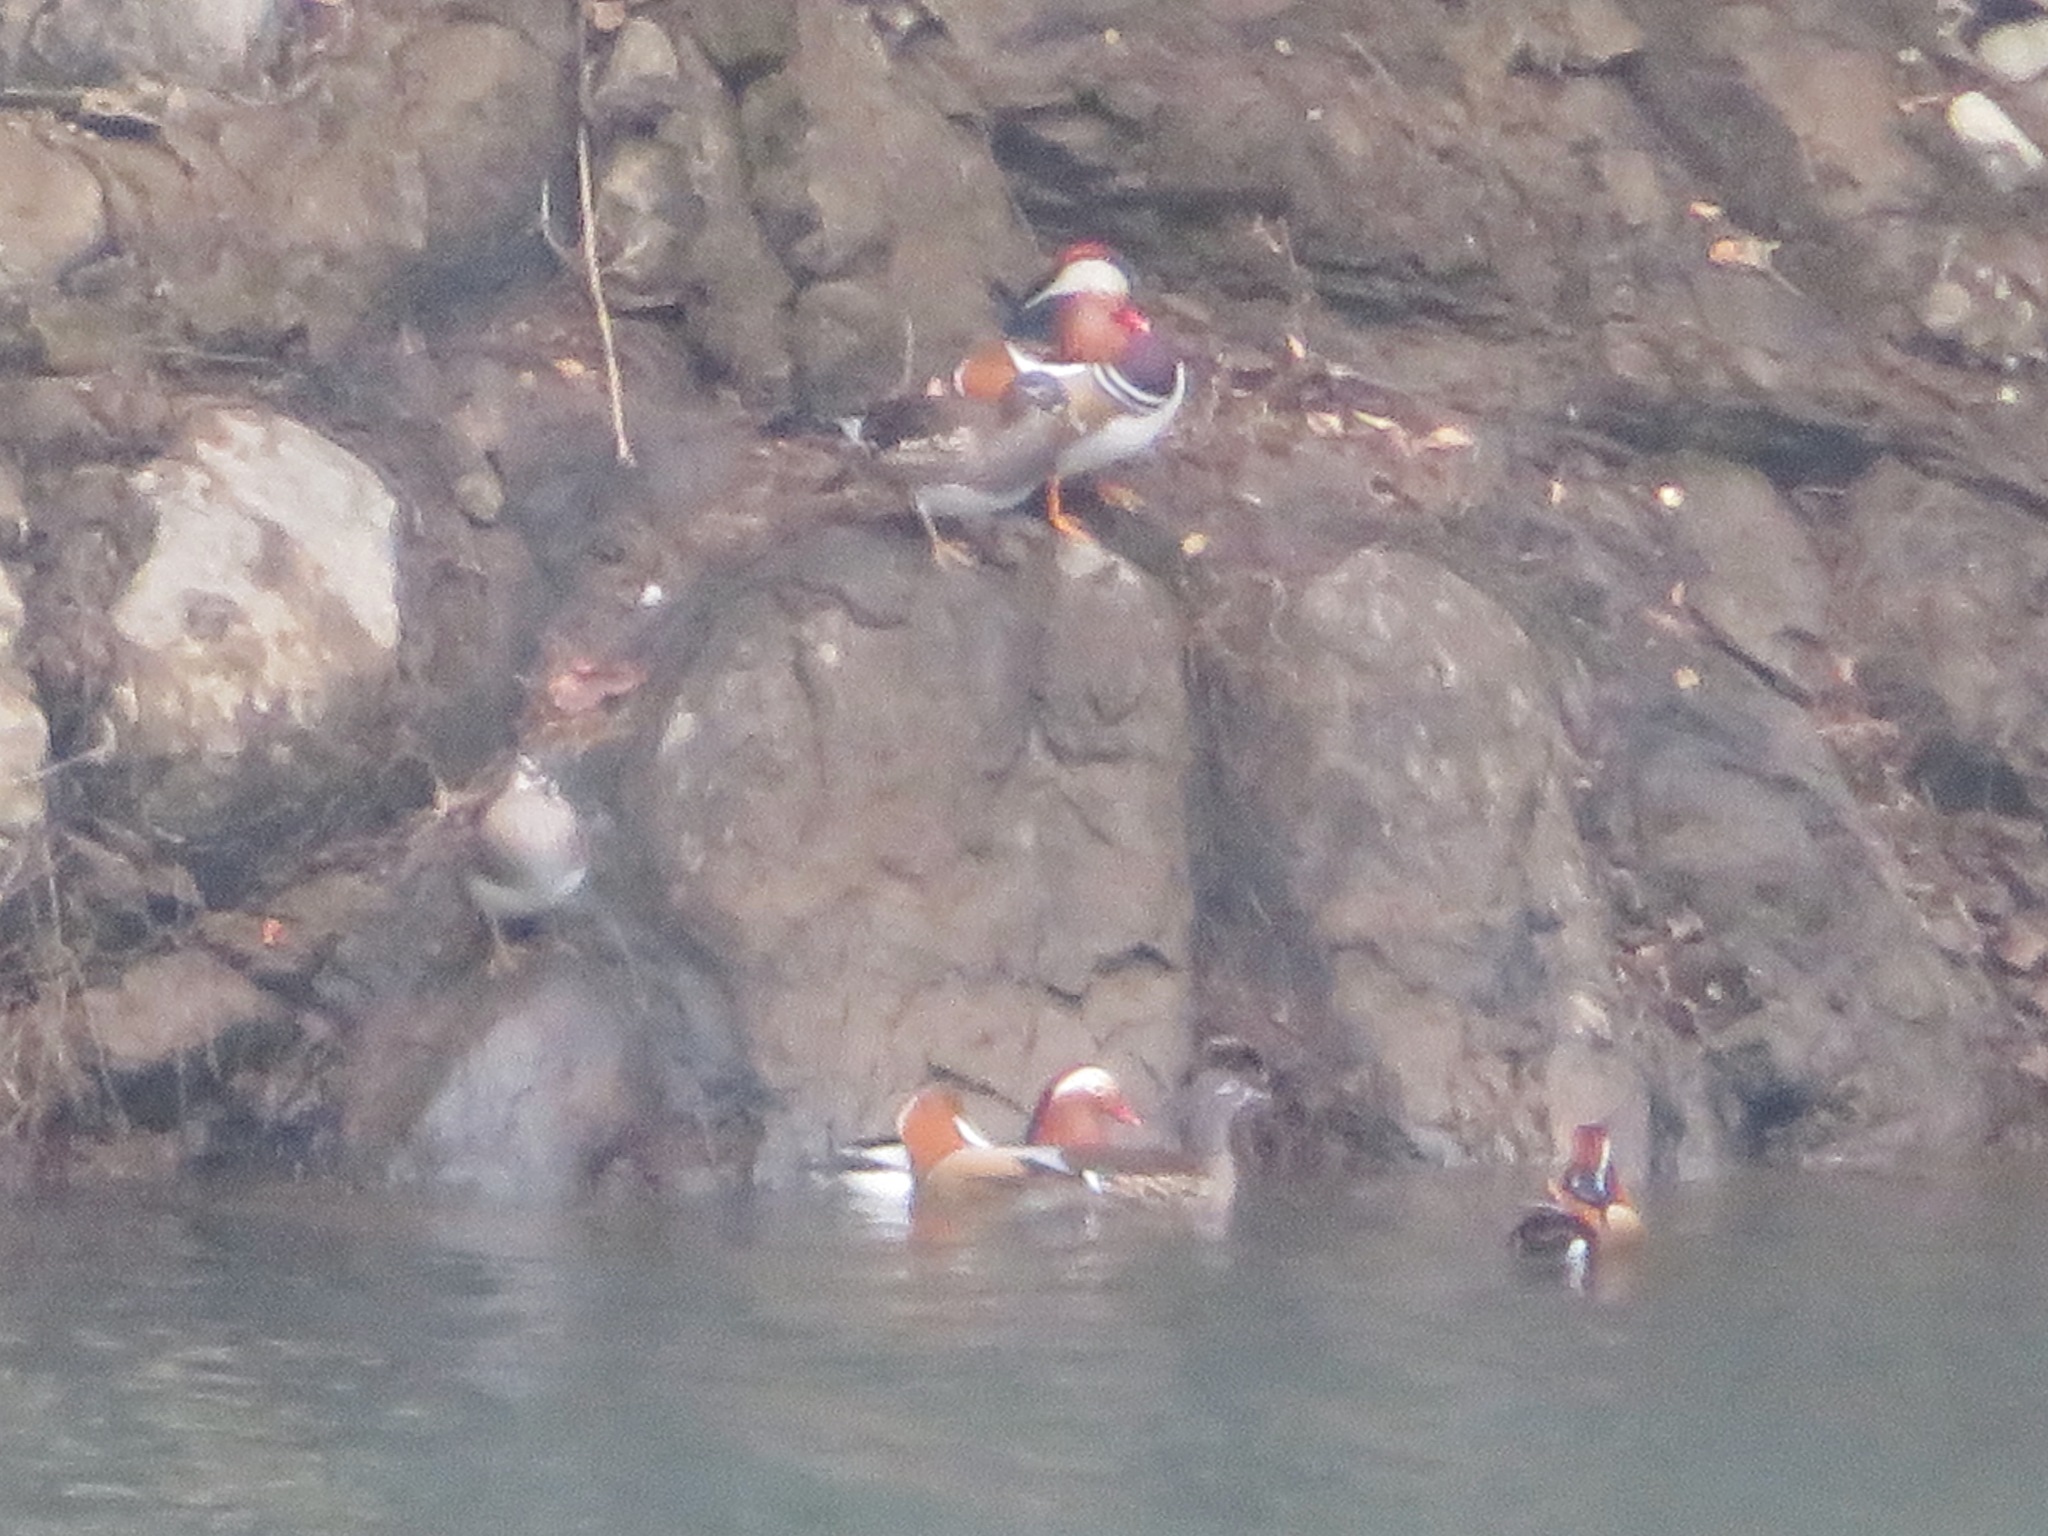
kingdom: Animalia
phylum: Chordata
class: Aves
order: Anseriformes
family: Anatidae
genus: Aix
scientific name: Aix galericulata
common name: Mandarin duck
